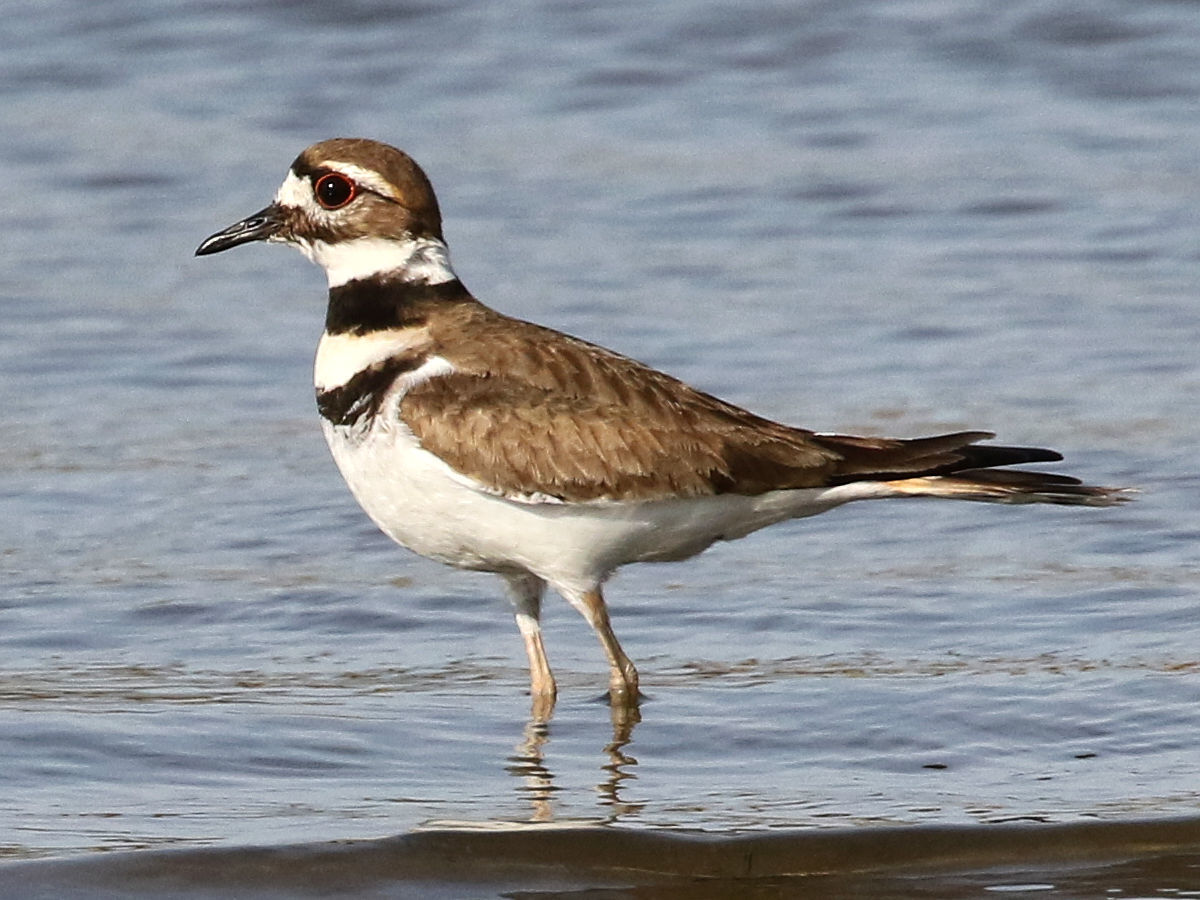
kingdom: Animalia
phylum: Chordata
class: Aves
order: Charadriiformes
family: Charadriidae
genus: Charadrius
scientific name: Charadrius vociferus
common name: Killdeer
